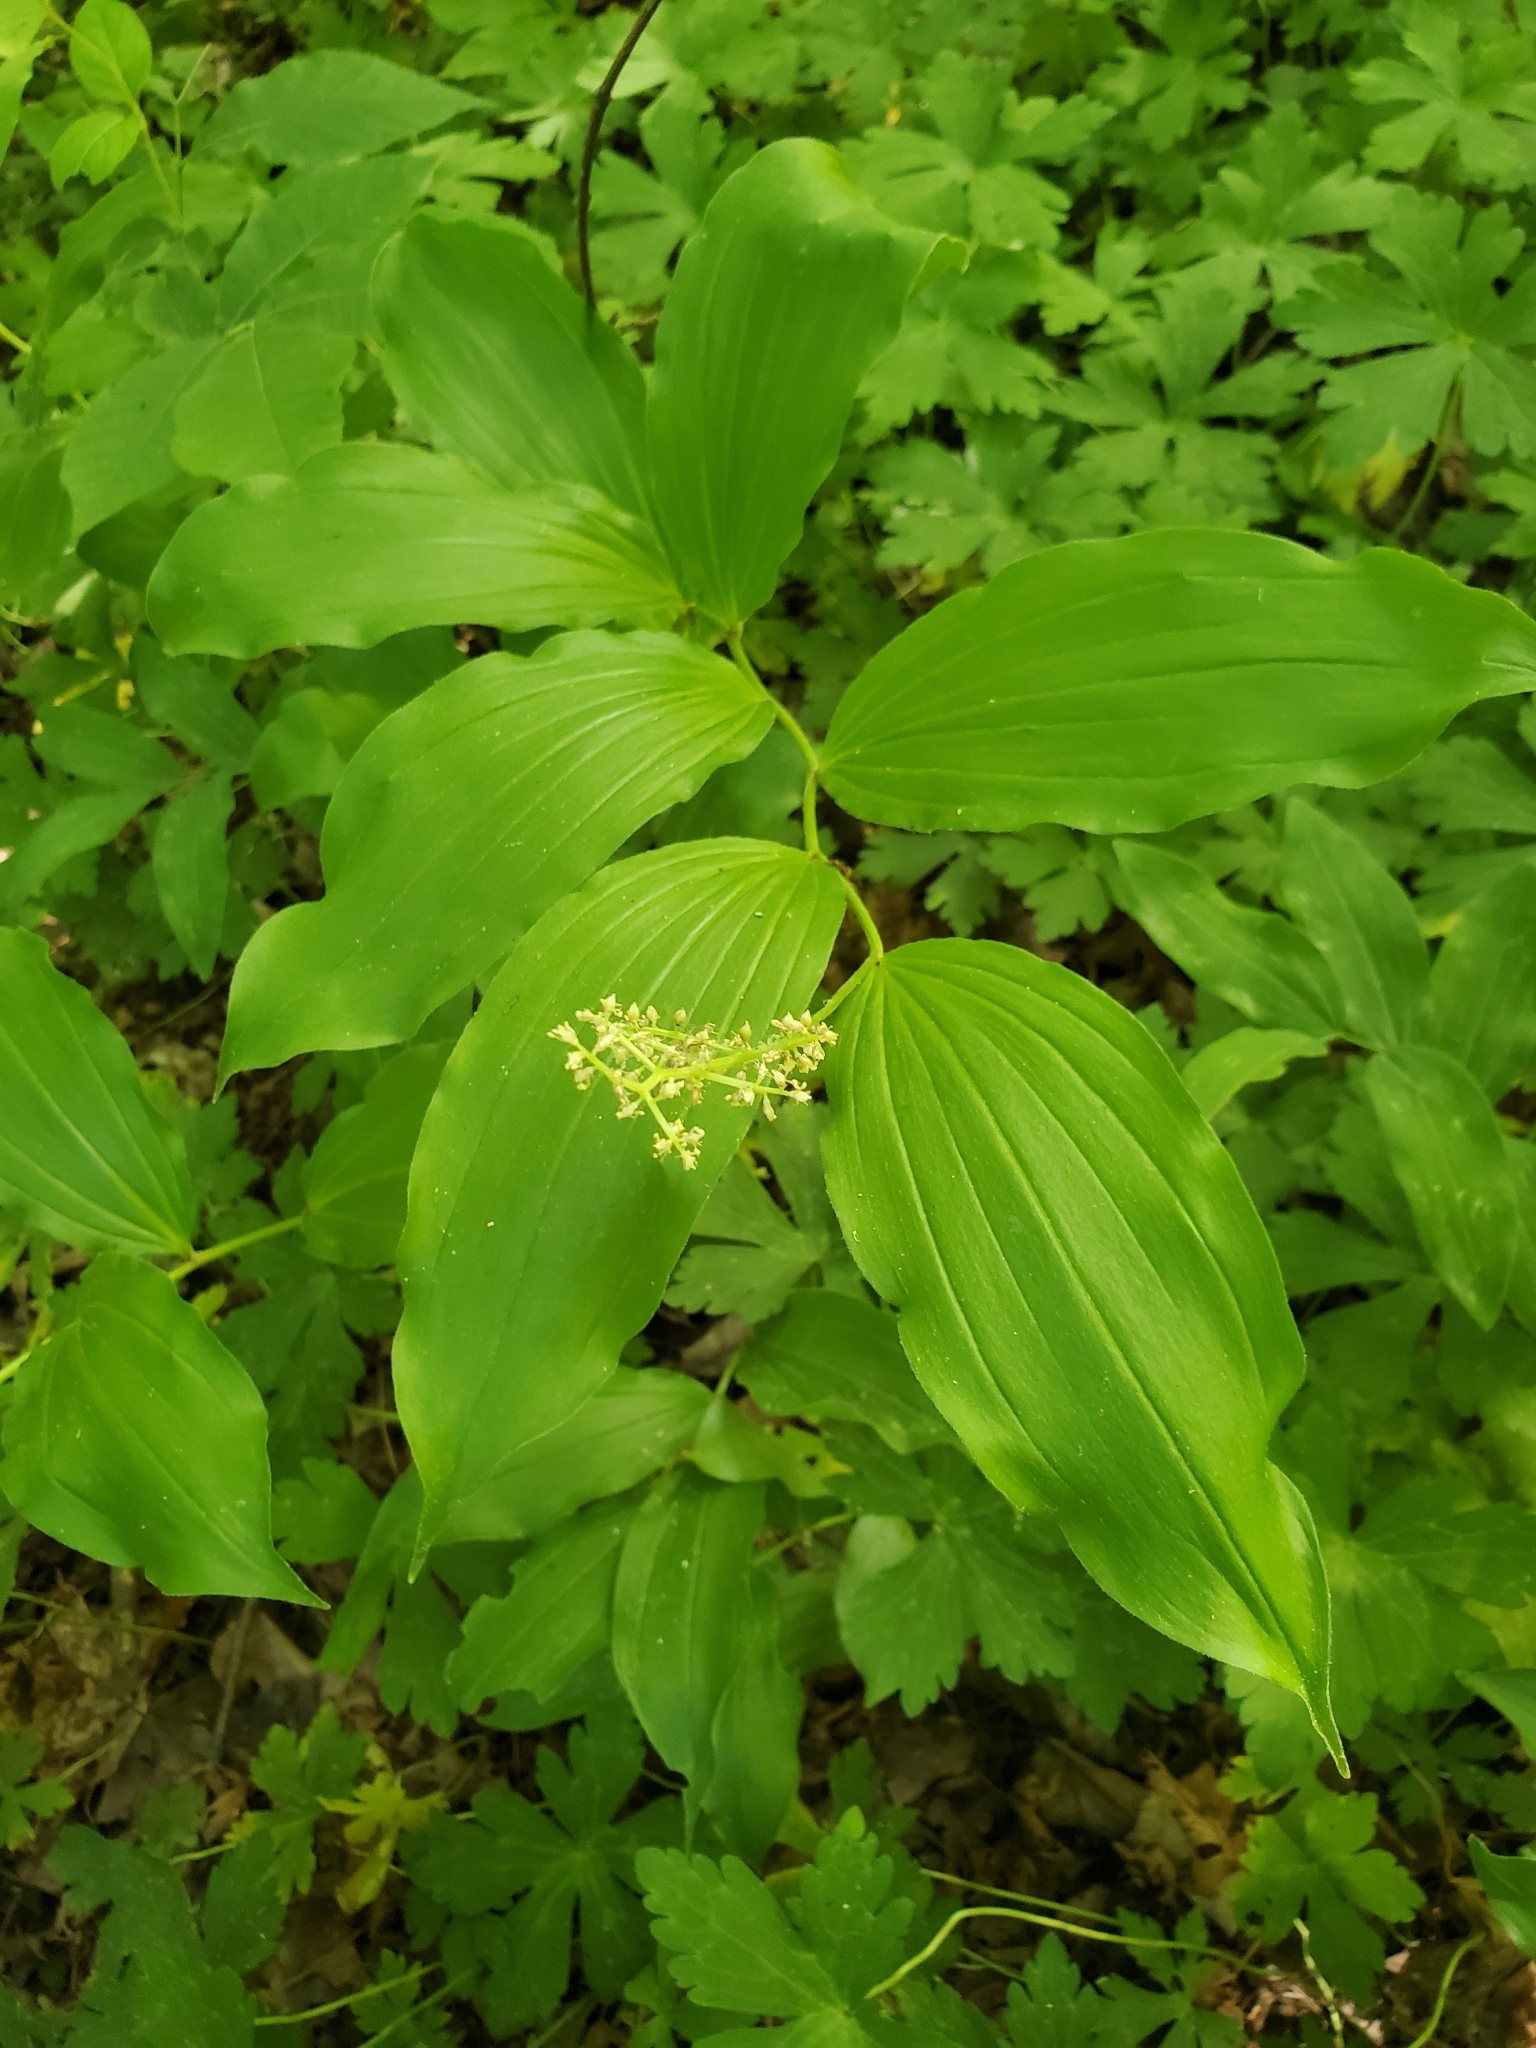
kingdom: Plantae
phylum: Tracheophyta
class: Liliopsida
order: Asparagales
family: Asparagaceae
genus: Maianthemum
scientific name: Maianthemum racemosum
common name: False spikenard
